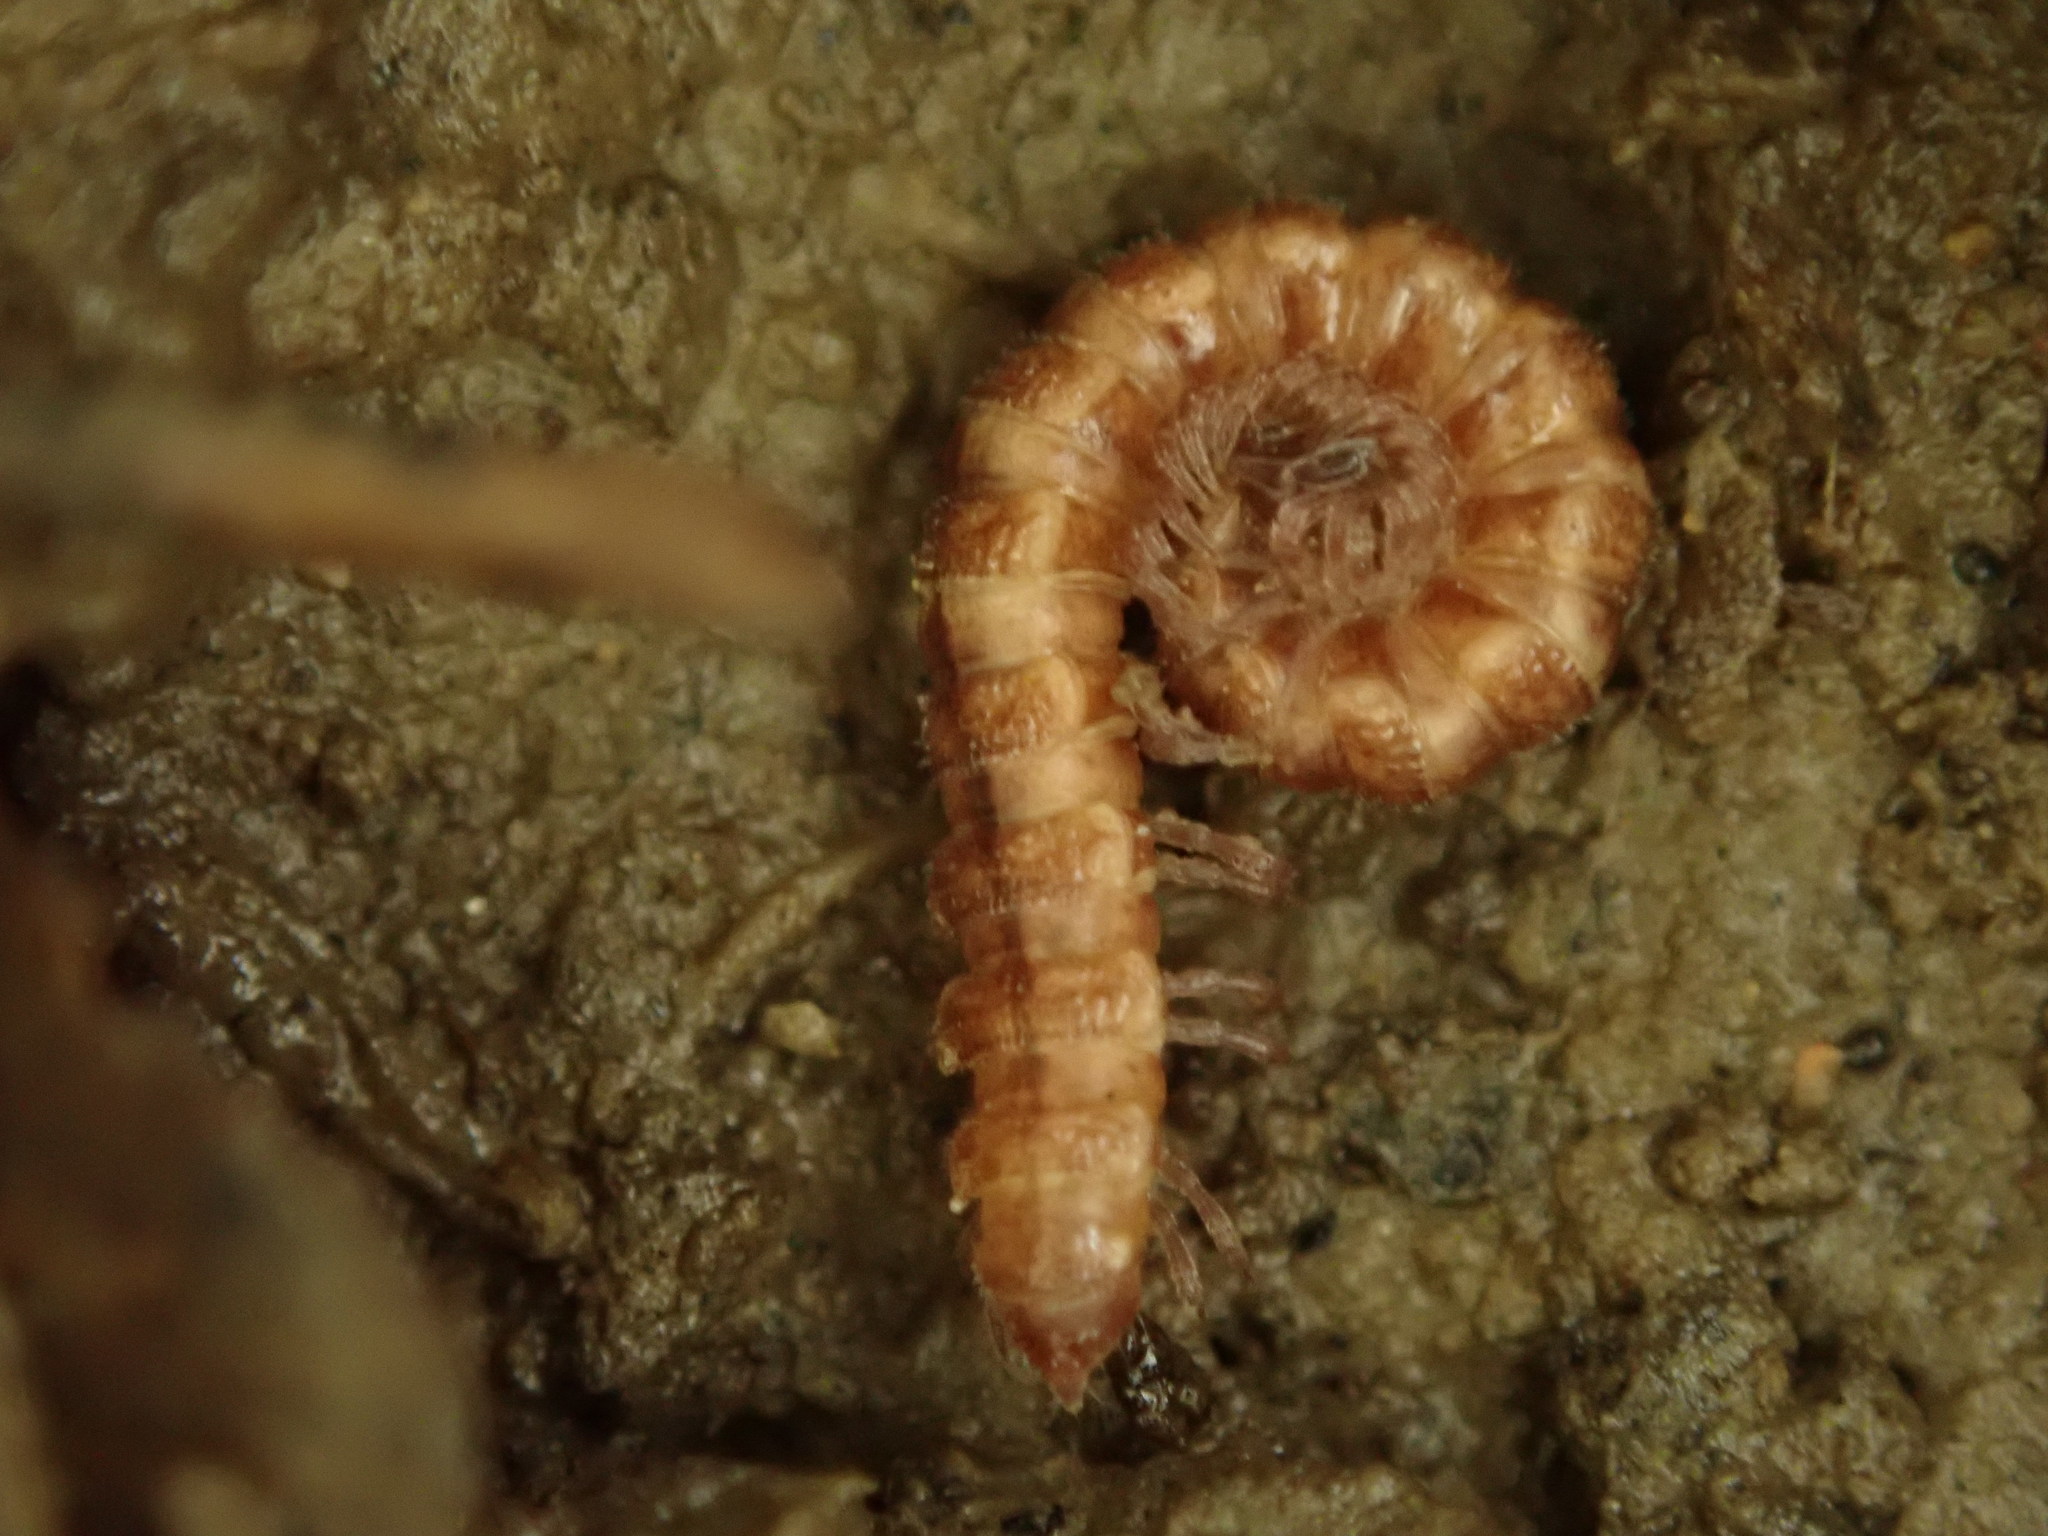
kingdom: Animalia
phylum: Arthropoda
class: Diplopoda
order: Polydesmida
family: Polydesmidae
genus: Scytonotus
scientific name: Scytonotus granulatus
